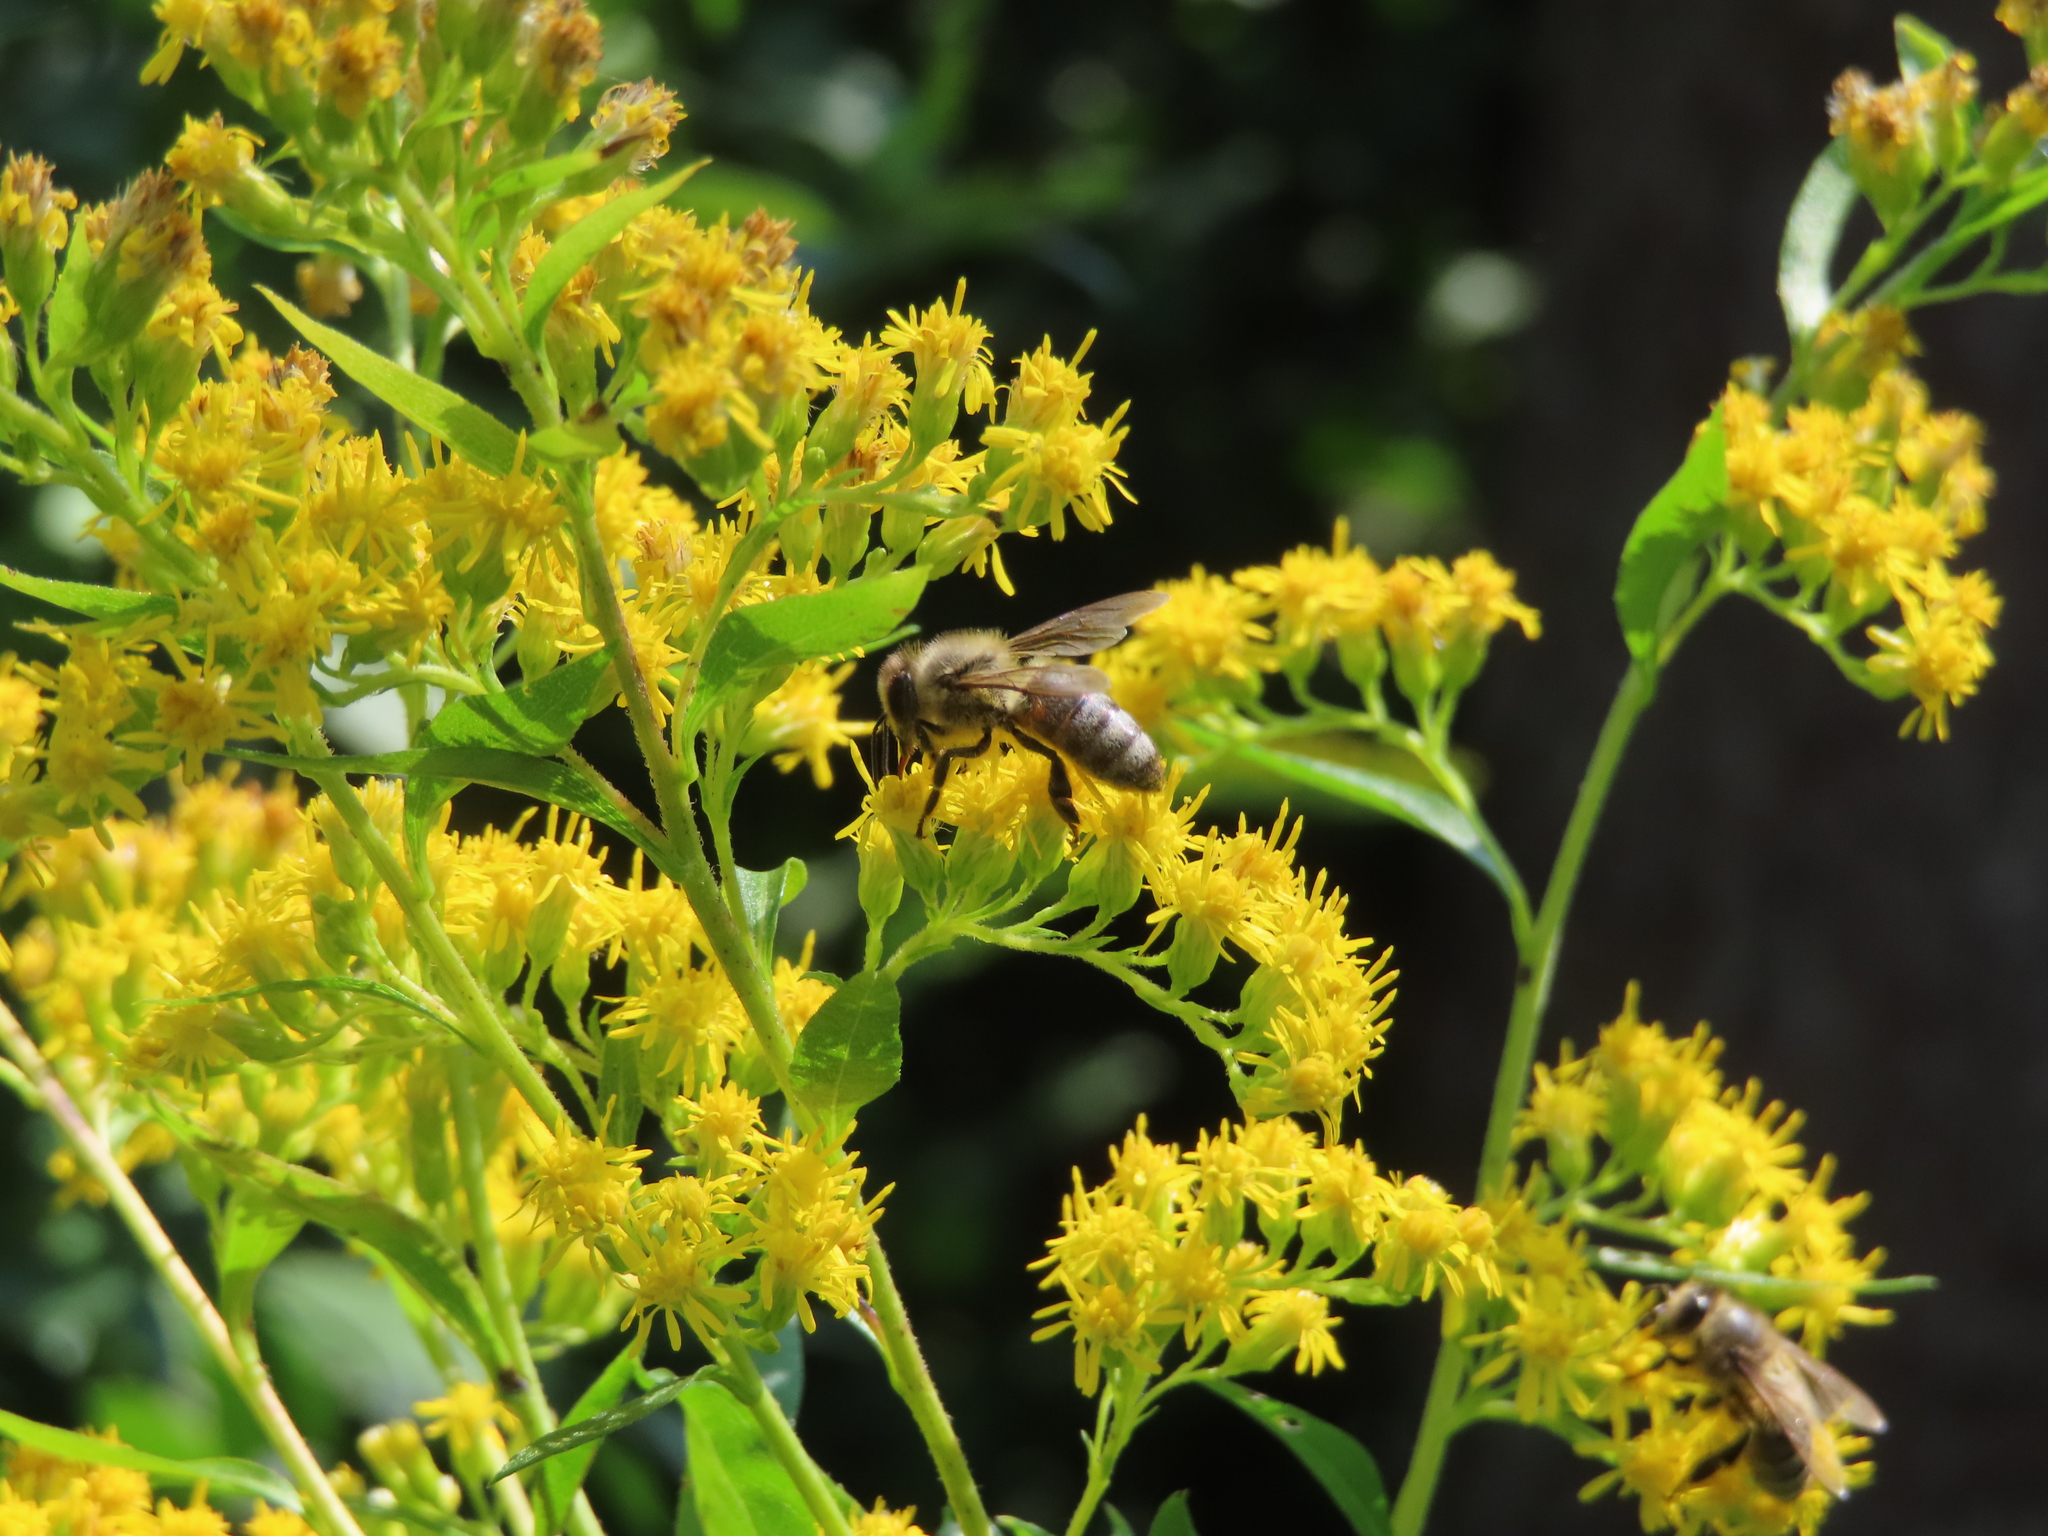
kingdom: Animalia
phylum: Arthropoda
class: Insecta
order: Hymenoptera
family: Apidae
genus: Apis
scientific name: Apis mellifera
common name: Honey bee
